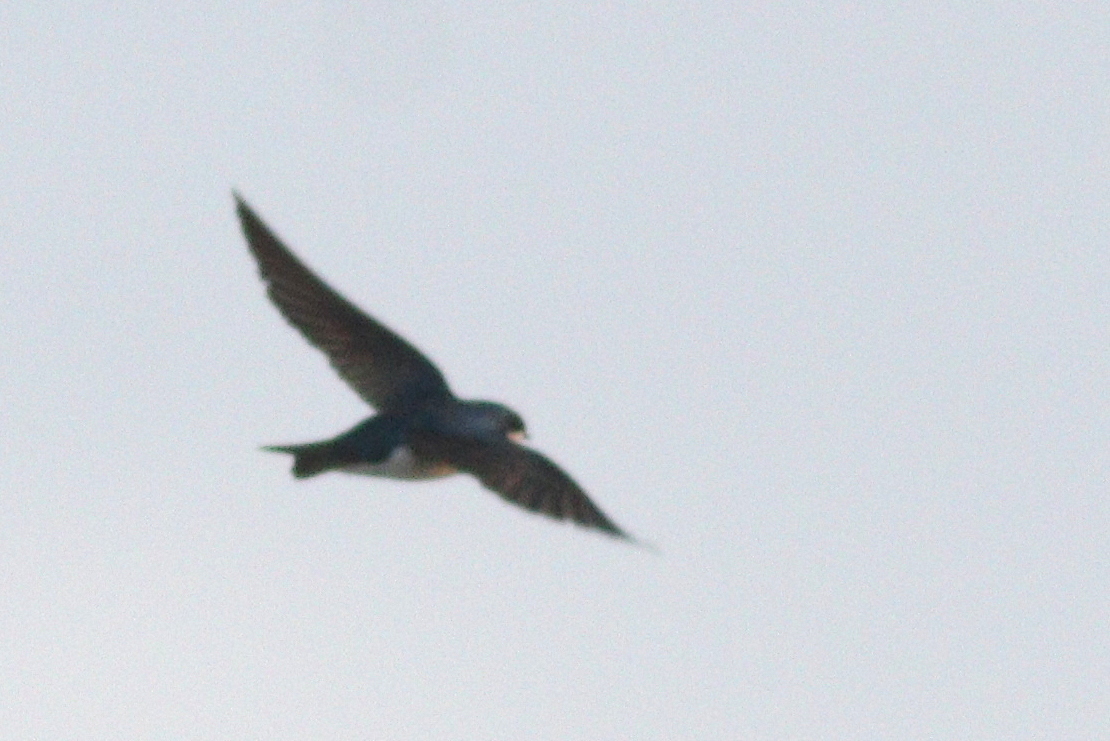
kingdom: Animalia
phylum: Chordata
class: Aves
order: Passeriformes
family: Hirundinidae
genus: Tachycineta
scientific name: Tachycineta bicolor
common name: Tree swallow
